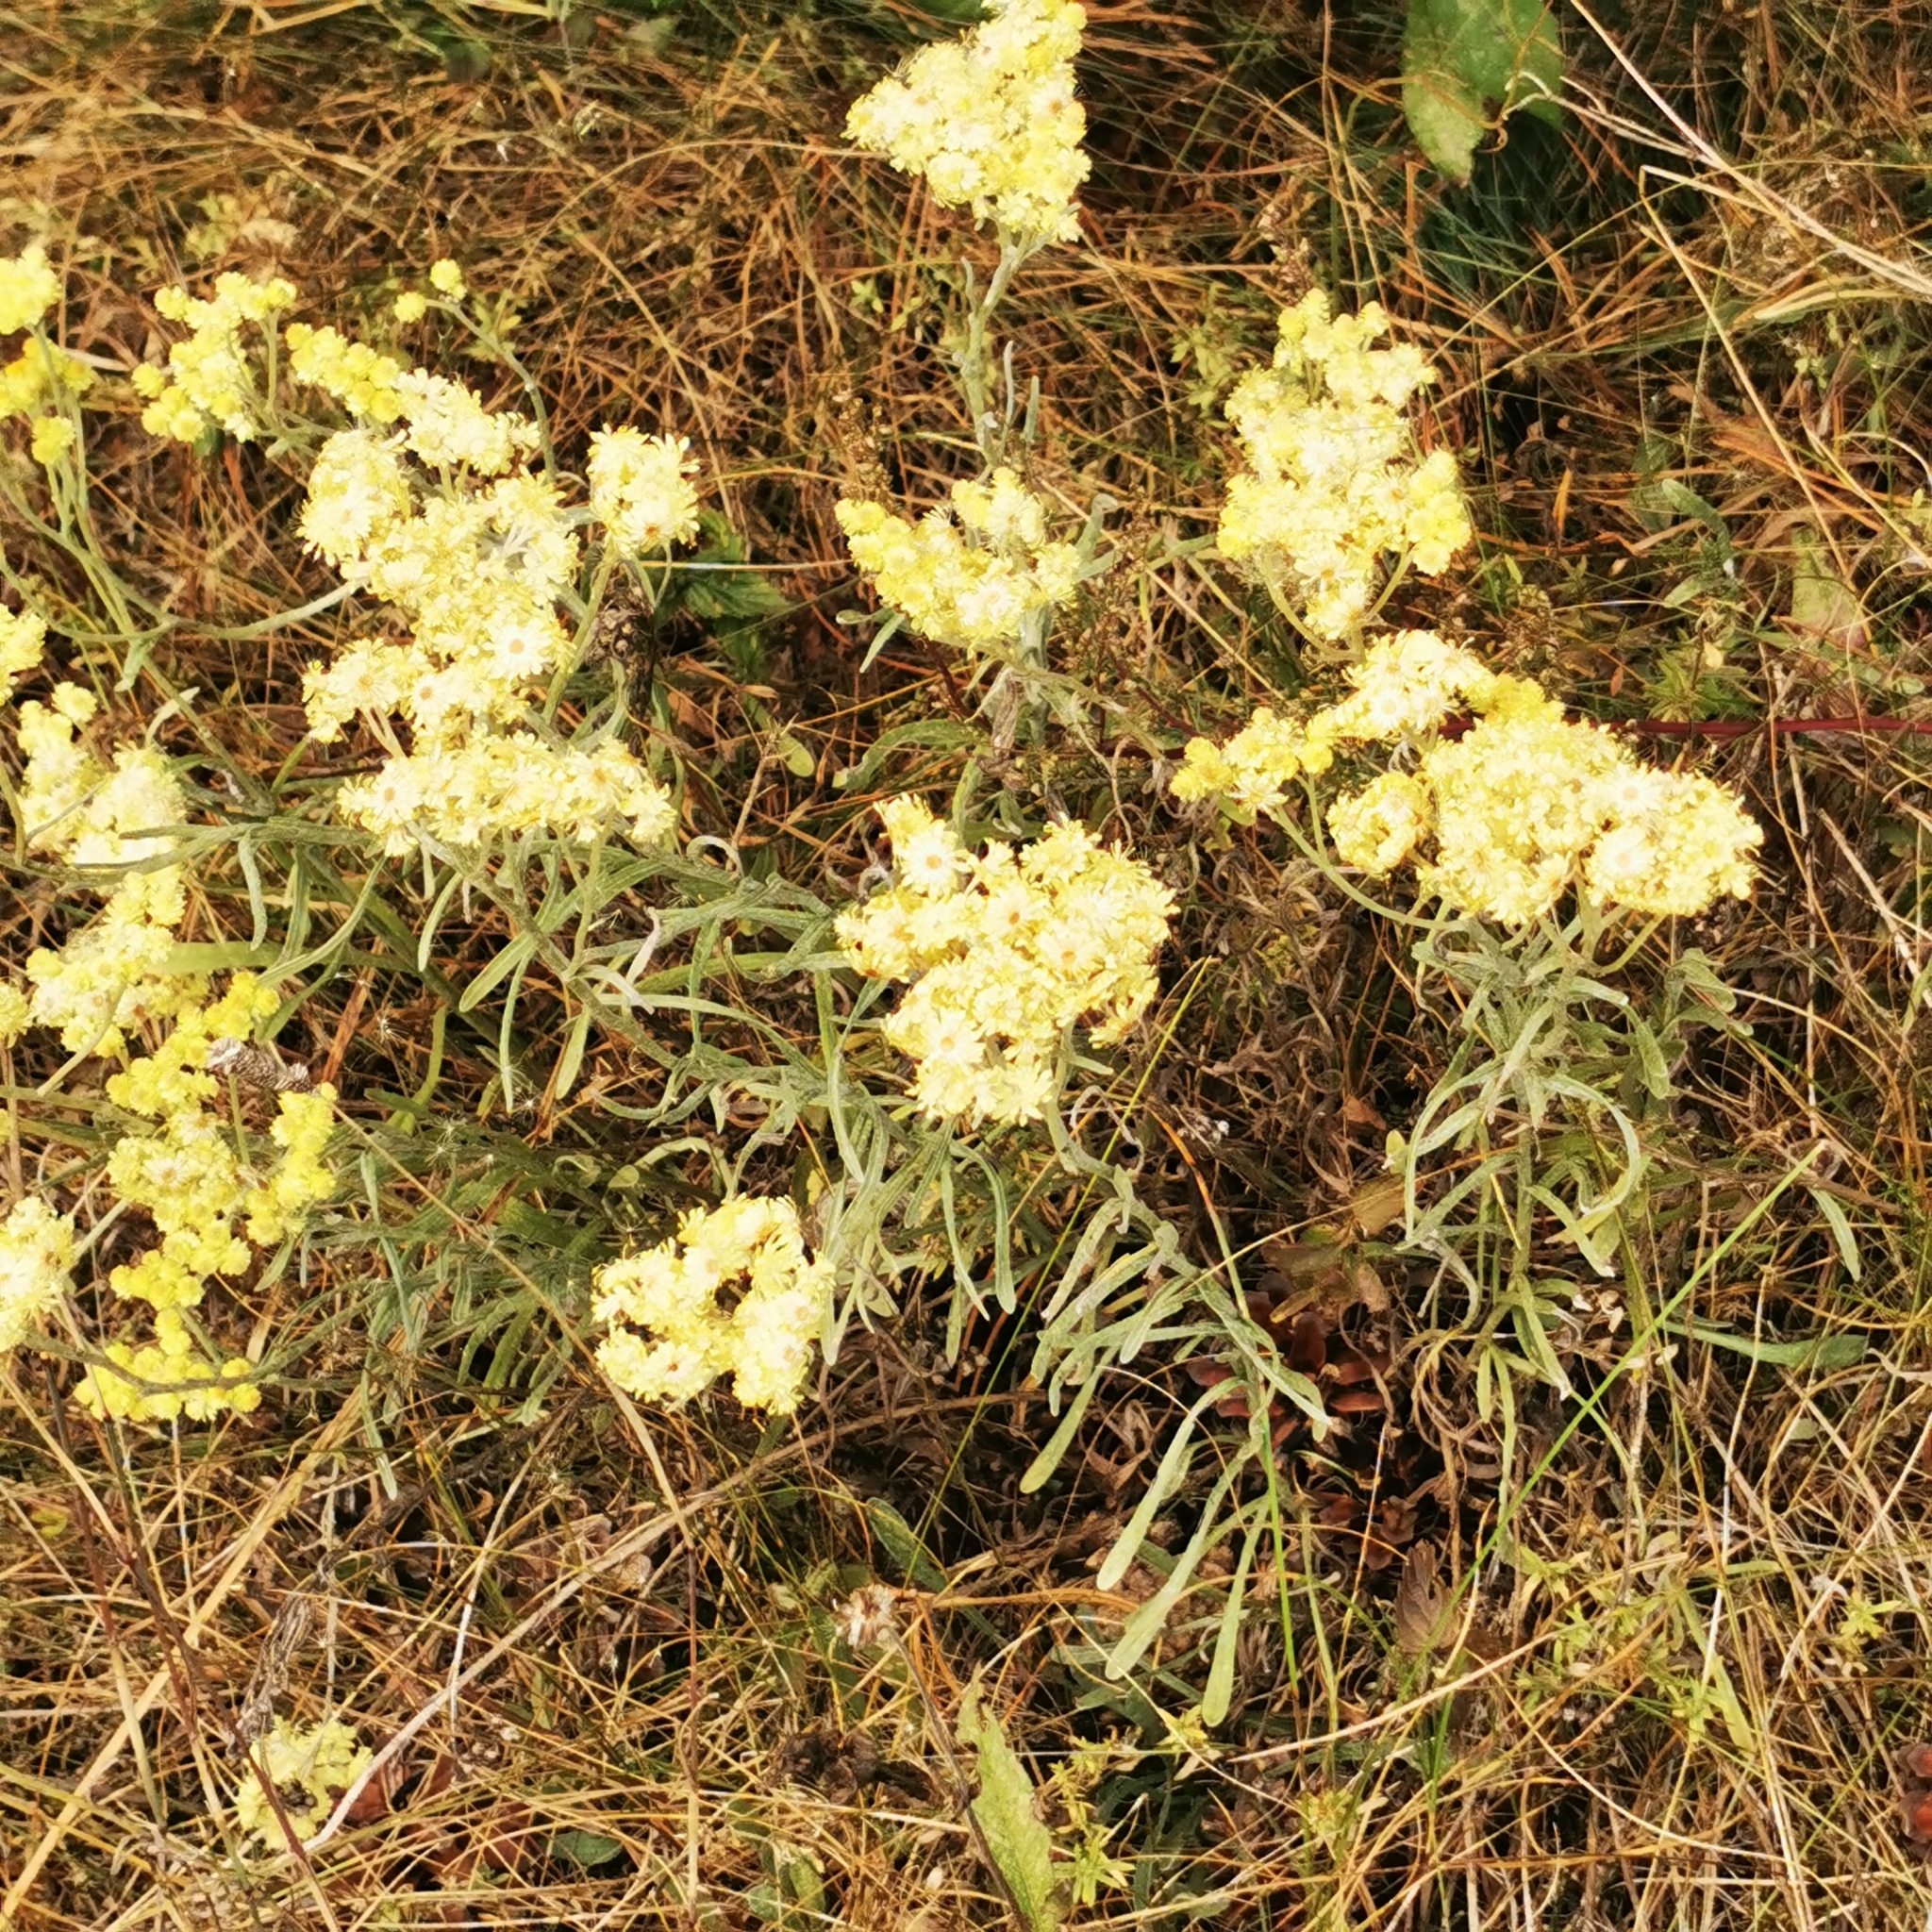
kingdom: Plantae
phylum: Tracheophyta
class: Magnoliopsida
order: Asterales
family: Asteraceae
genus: Helichrysum
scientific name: Helichrysum arenarium
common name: Strawflower
